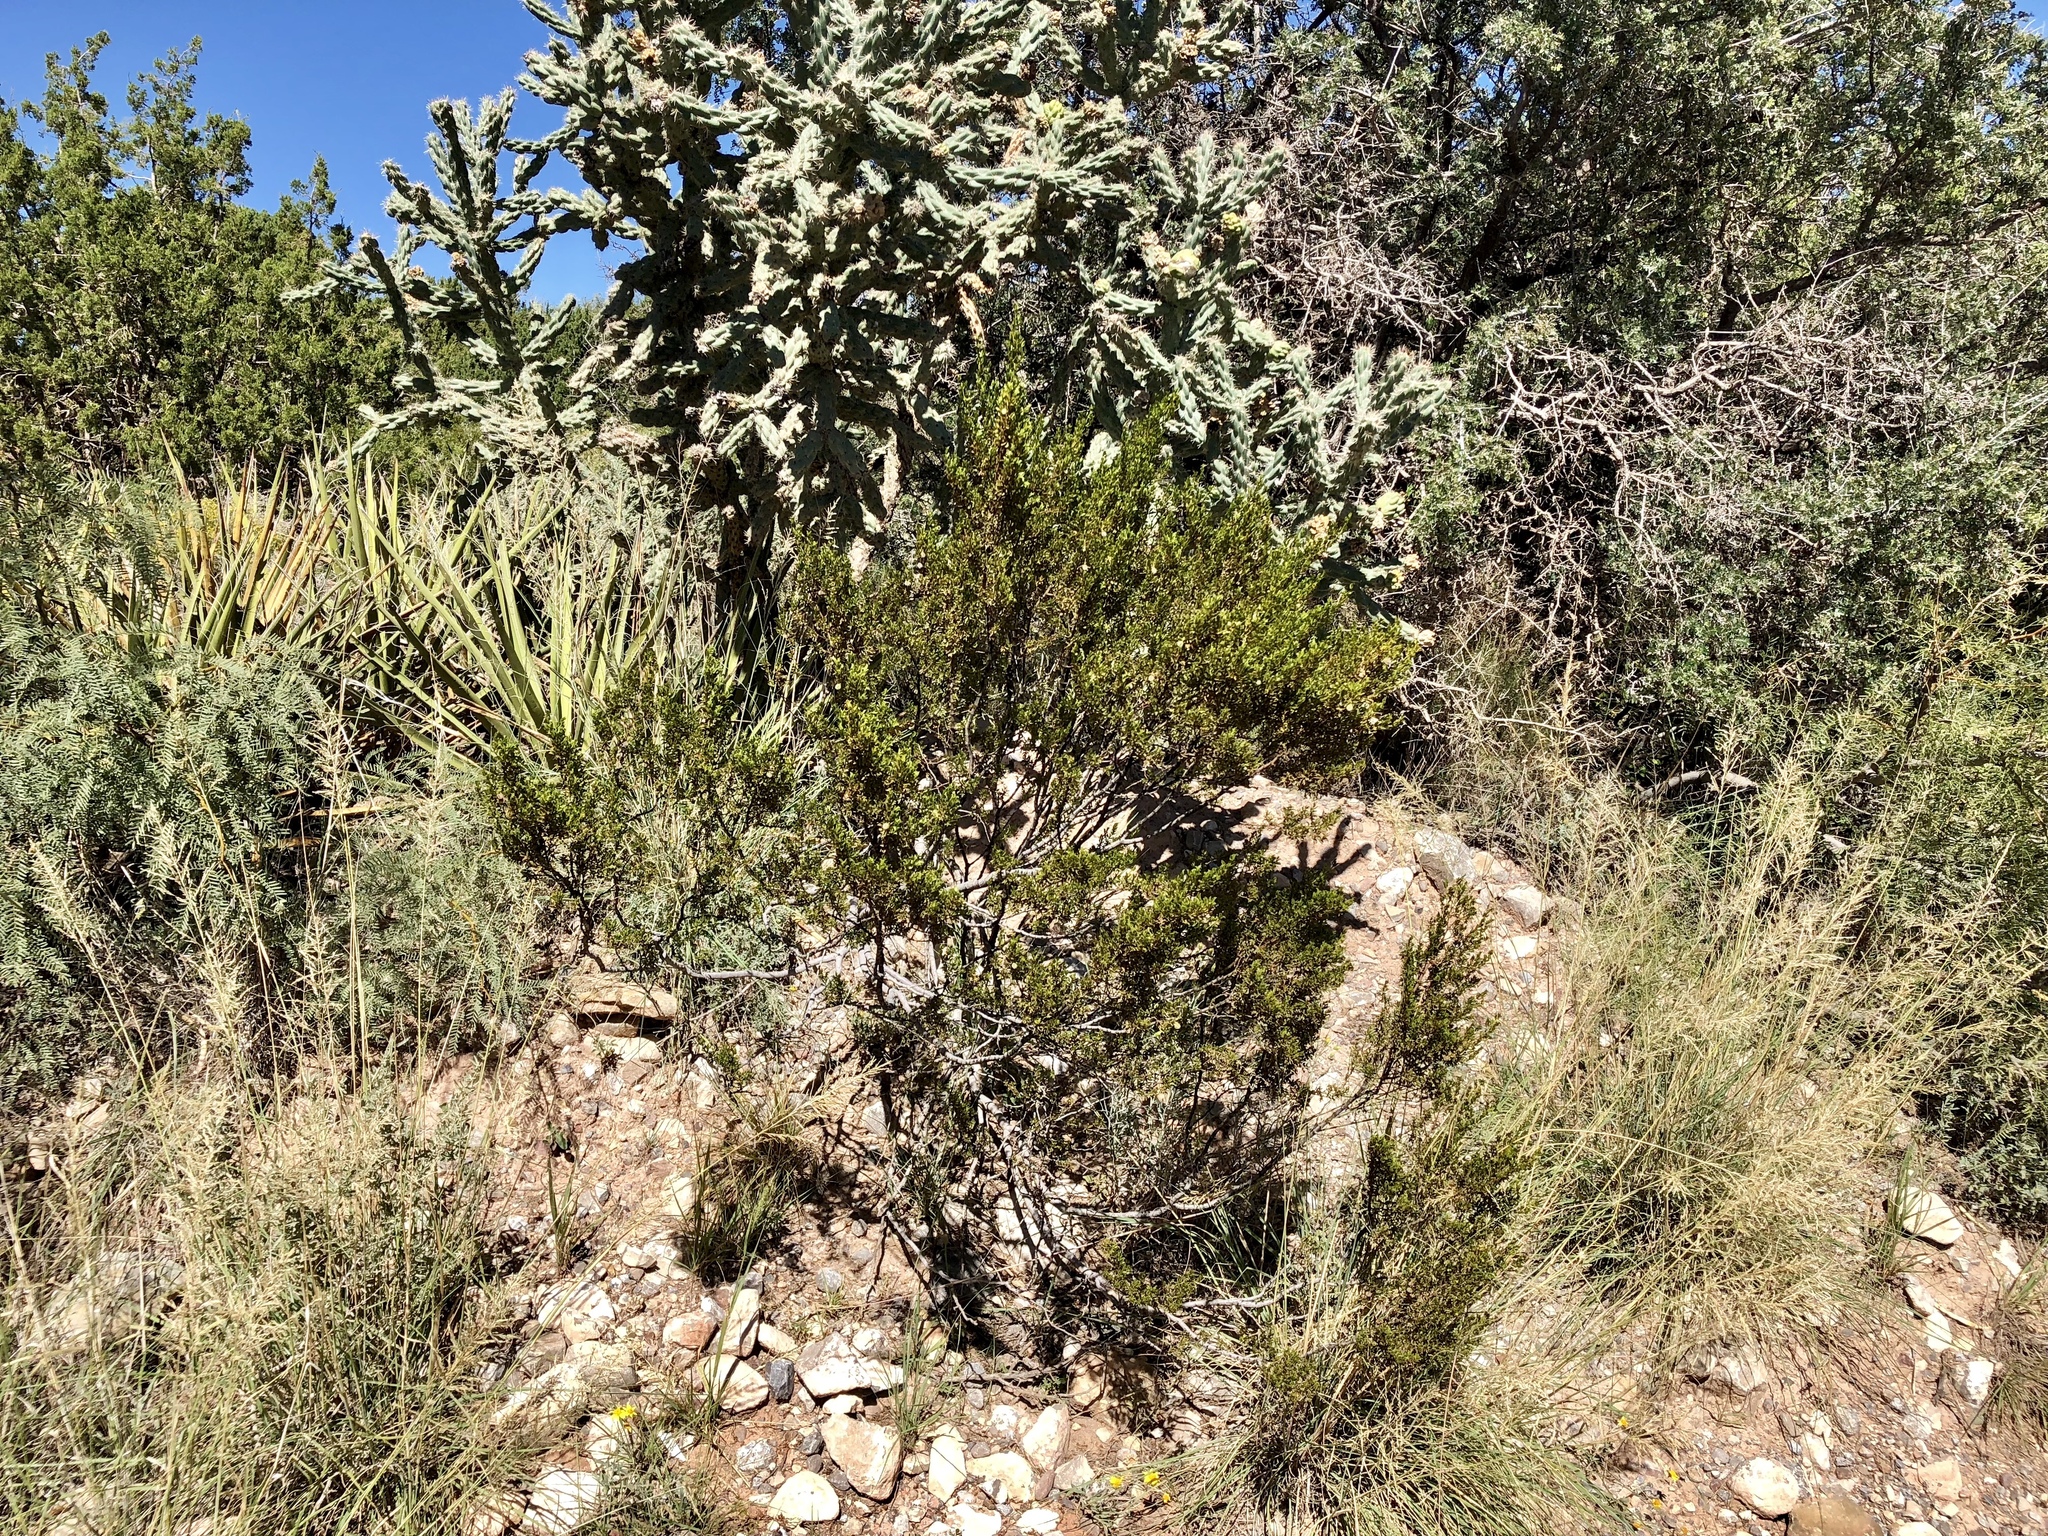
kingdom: Plantae
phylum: Tracheophyta
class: Magnoliopsida
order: Zygophyllales
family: Zygophyllaceae
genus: Larrea
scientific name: Larrea tridentata
